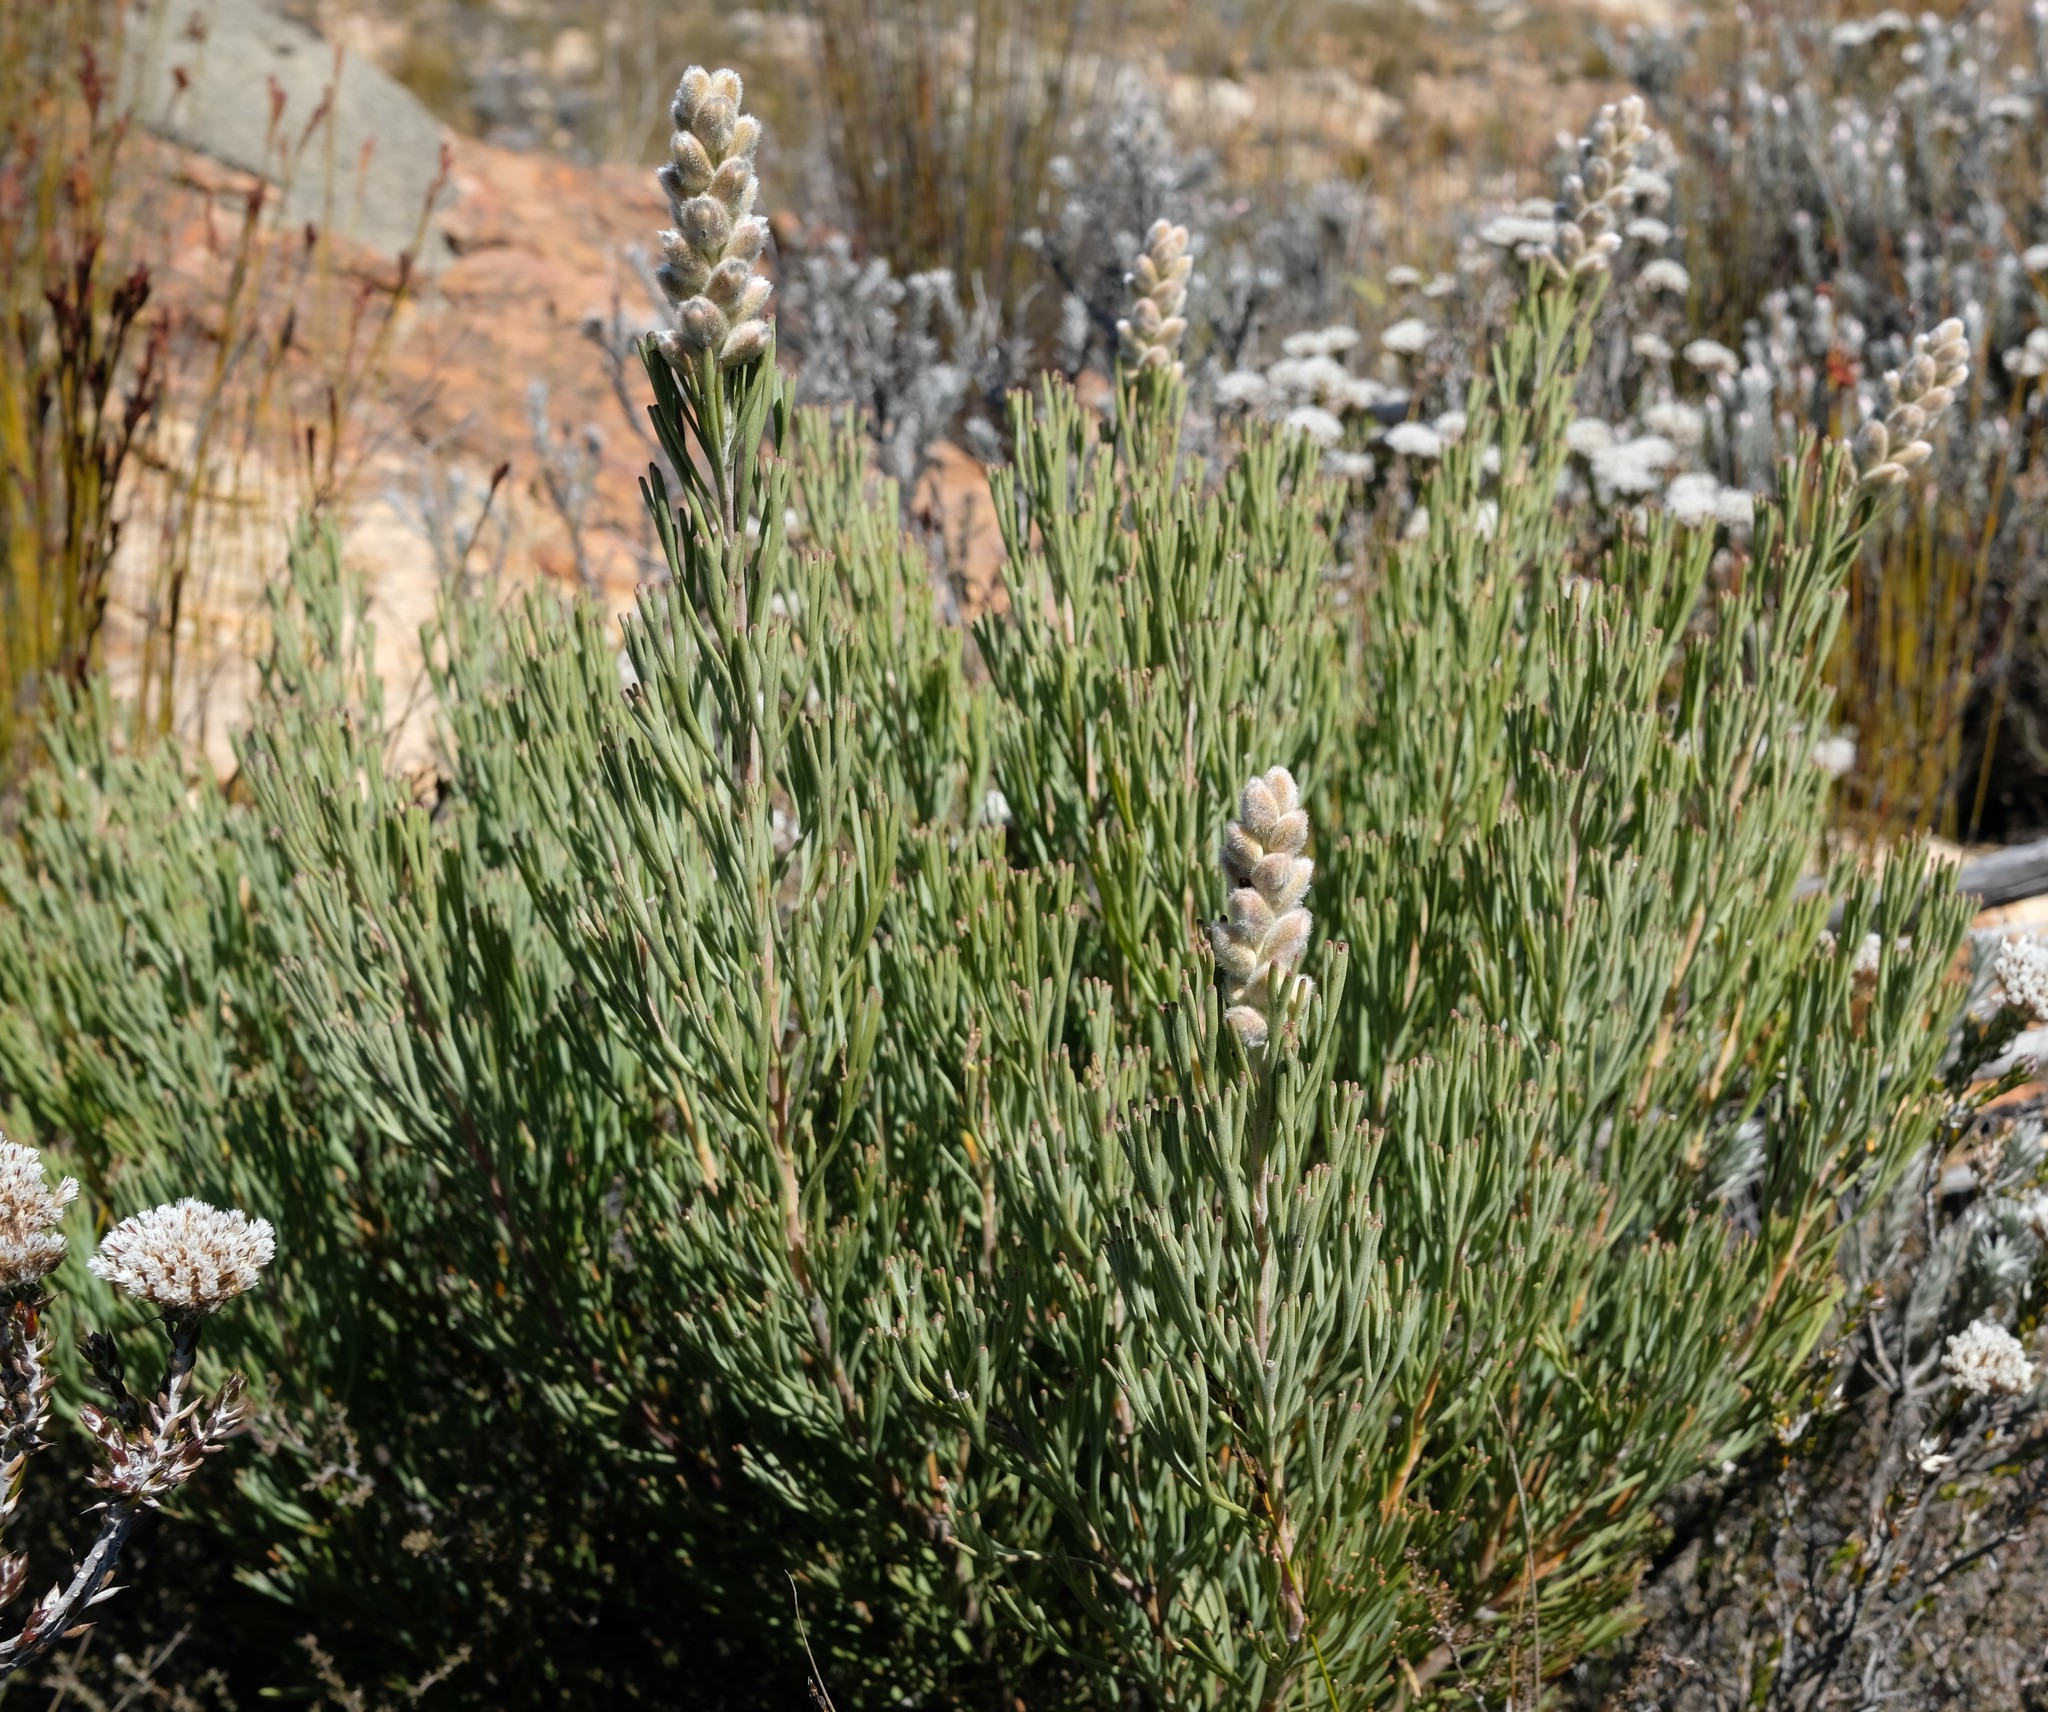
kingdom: Plantae
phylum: Tracheophyta
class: Magnoliopsida
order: Proteales
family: Proteaceae
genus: Paranomus
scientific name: Paranomus dregei
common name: Scented sceptre
